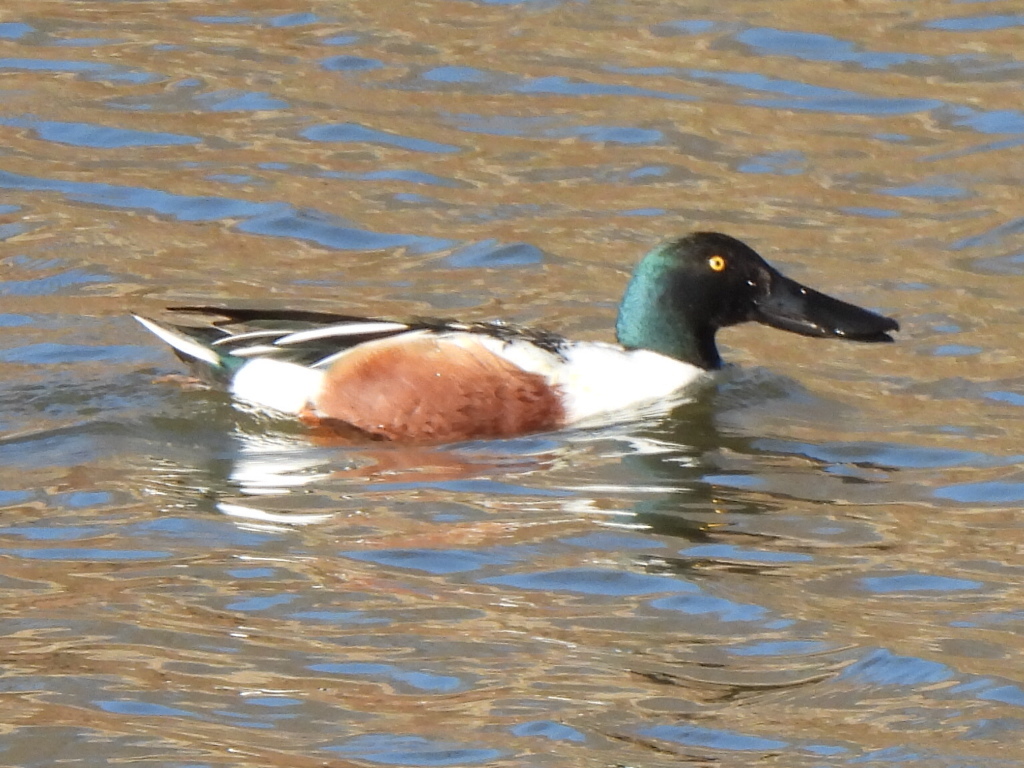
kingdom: Animalia
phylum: Chordata
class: Aves
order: Anseriformes
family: Anatidae
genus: Spatula
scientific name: Spatula clypeata
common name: Northern shoveler
